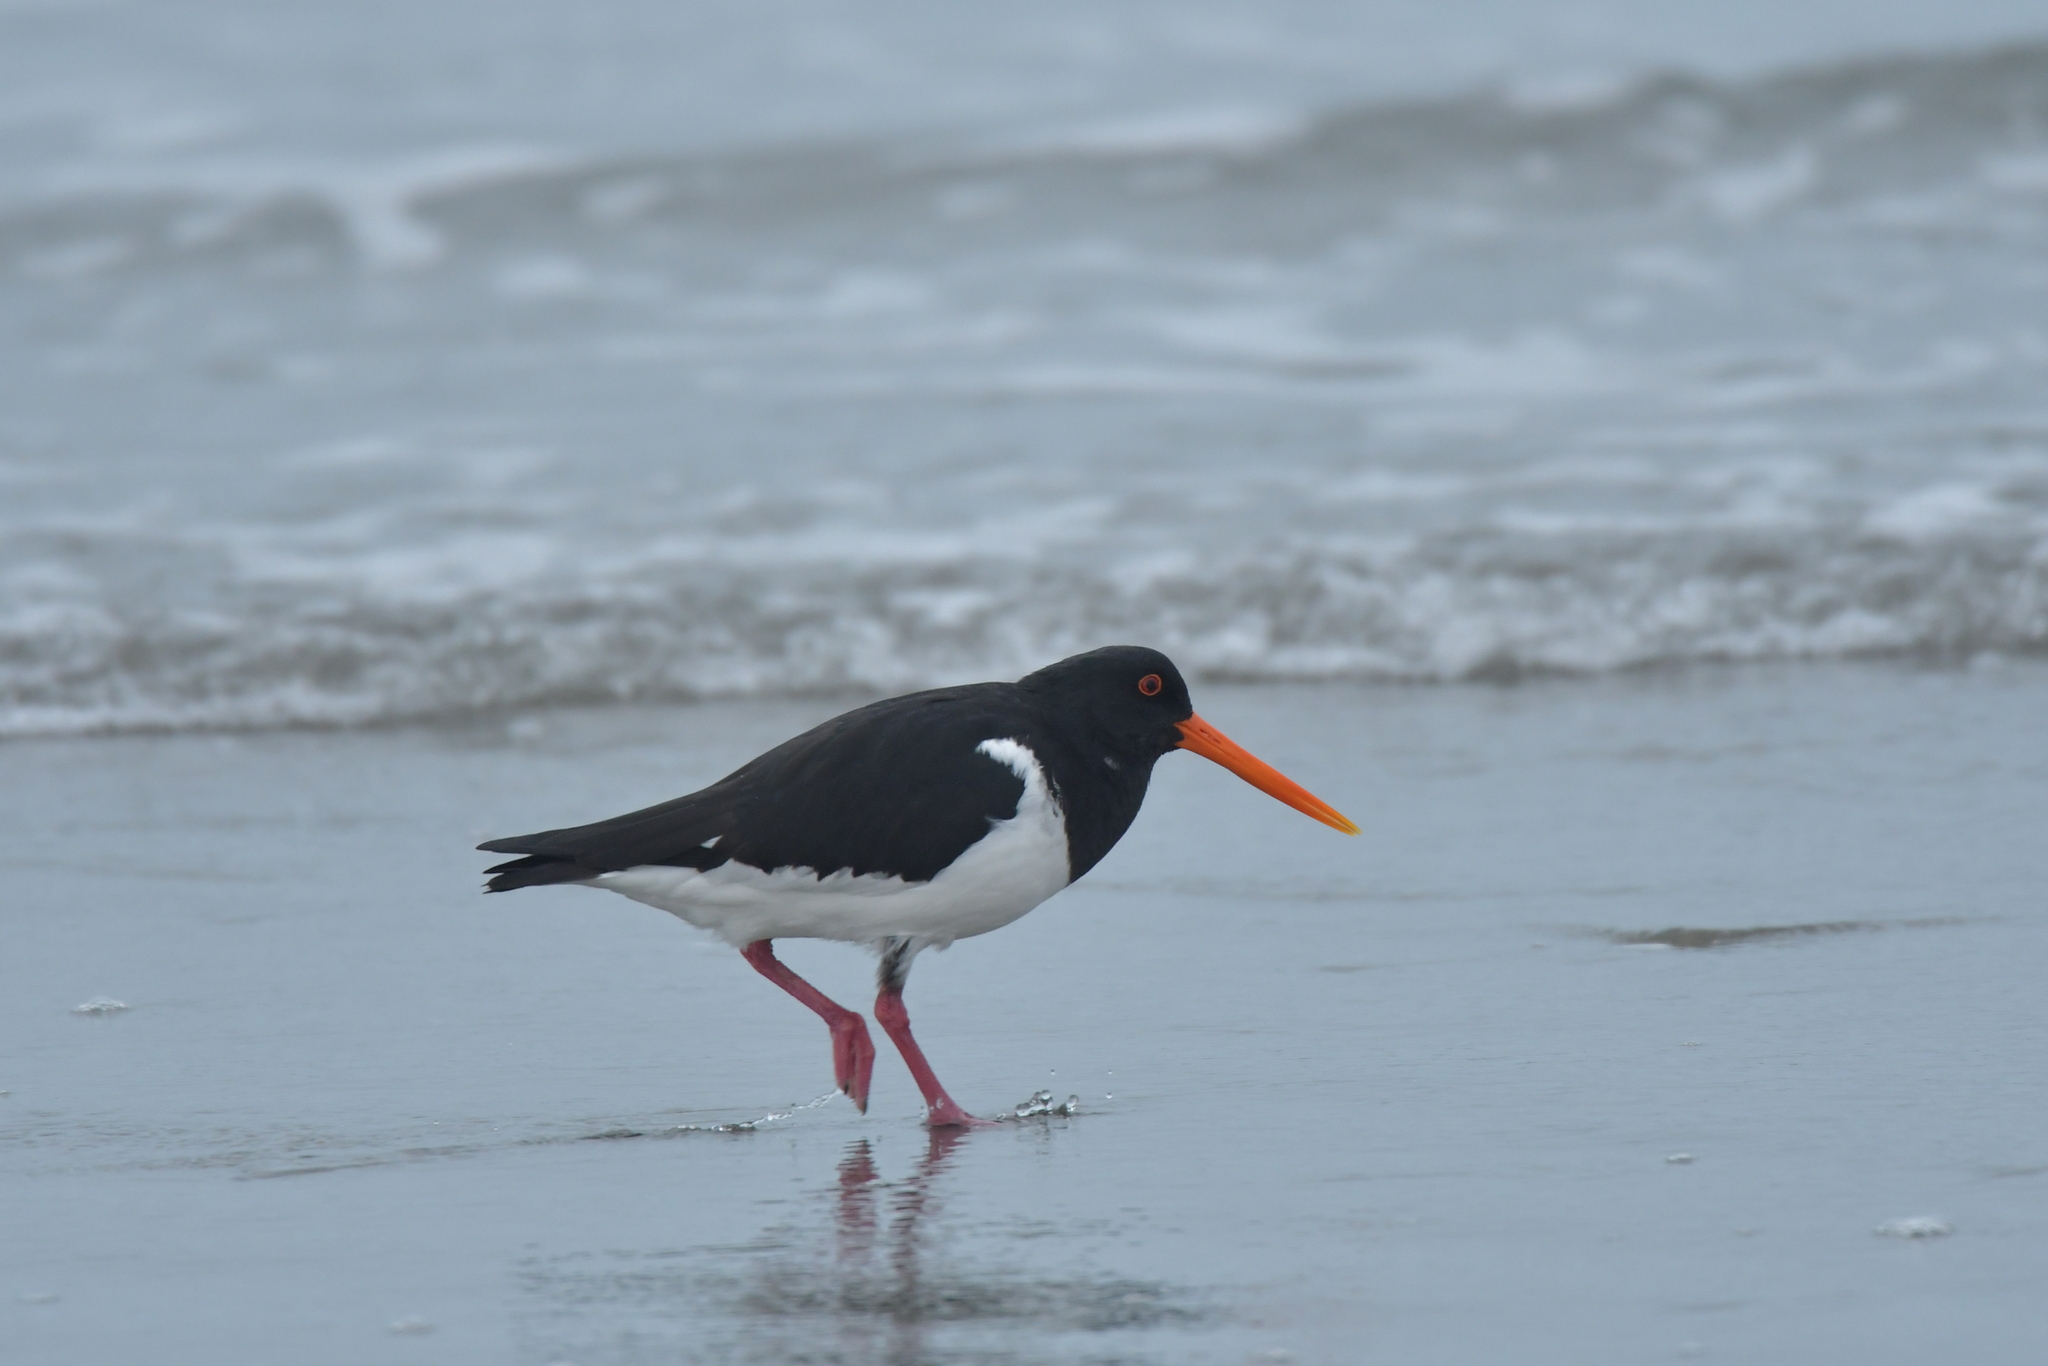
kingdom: Animalia
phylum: Chordata
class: Aves
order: Charadriiformes
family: Haematopodidae
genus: Haematopus
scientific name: Haematopus finschi
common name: South island oystercatcher
